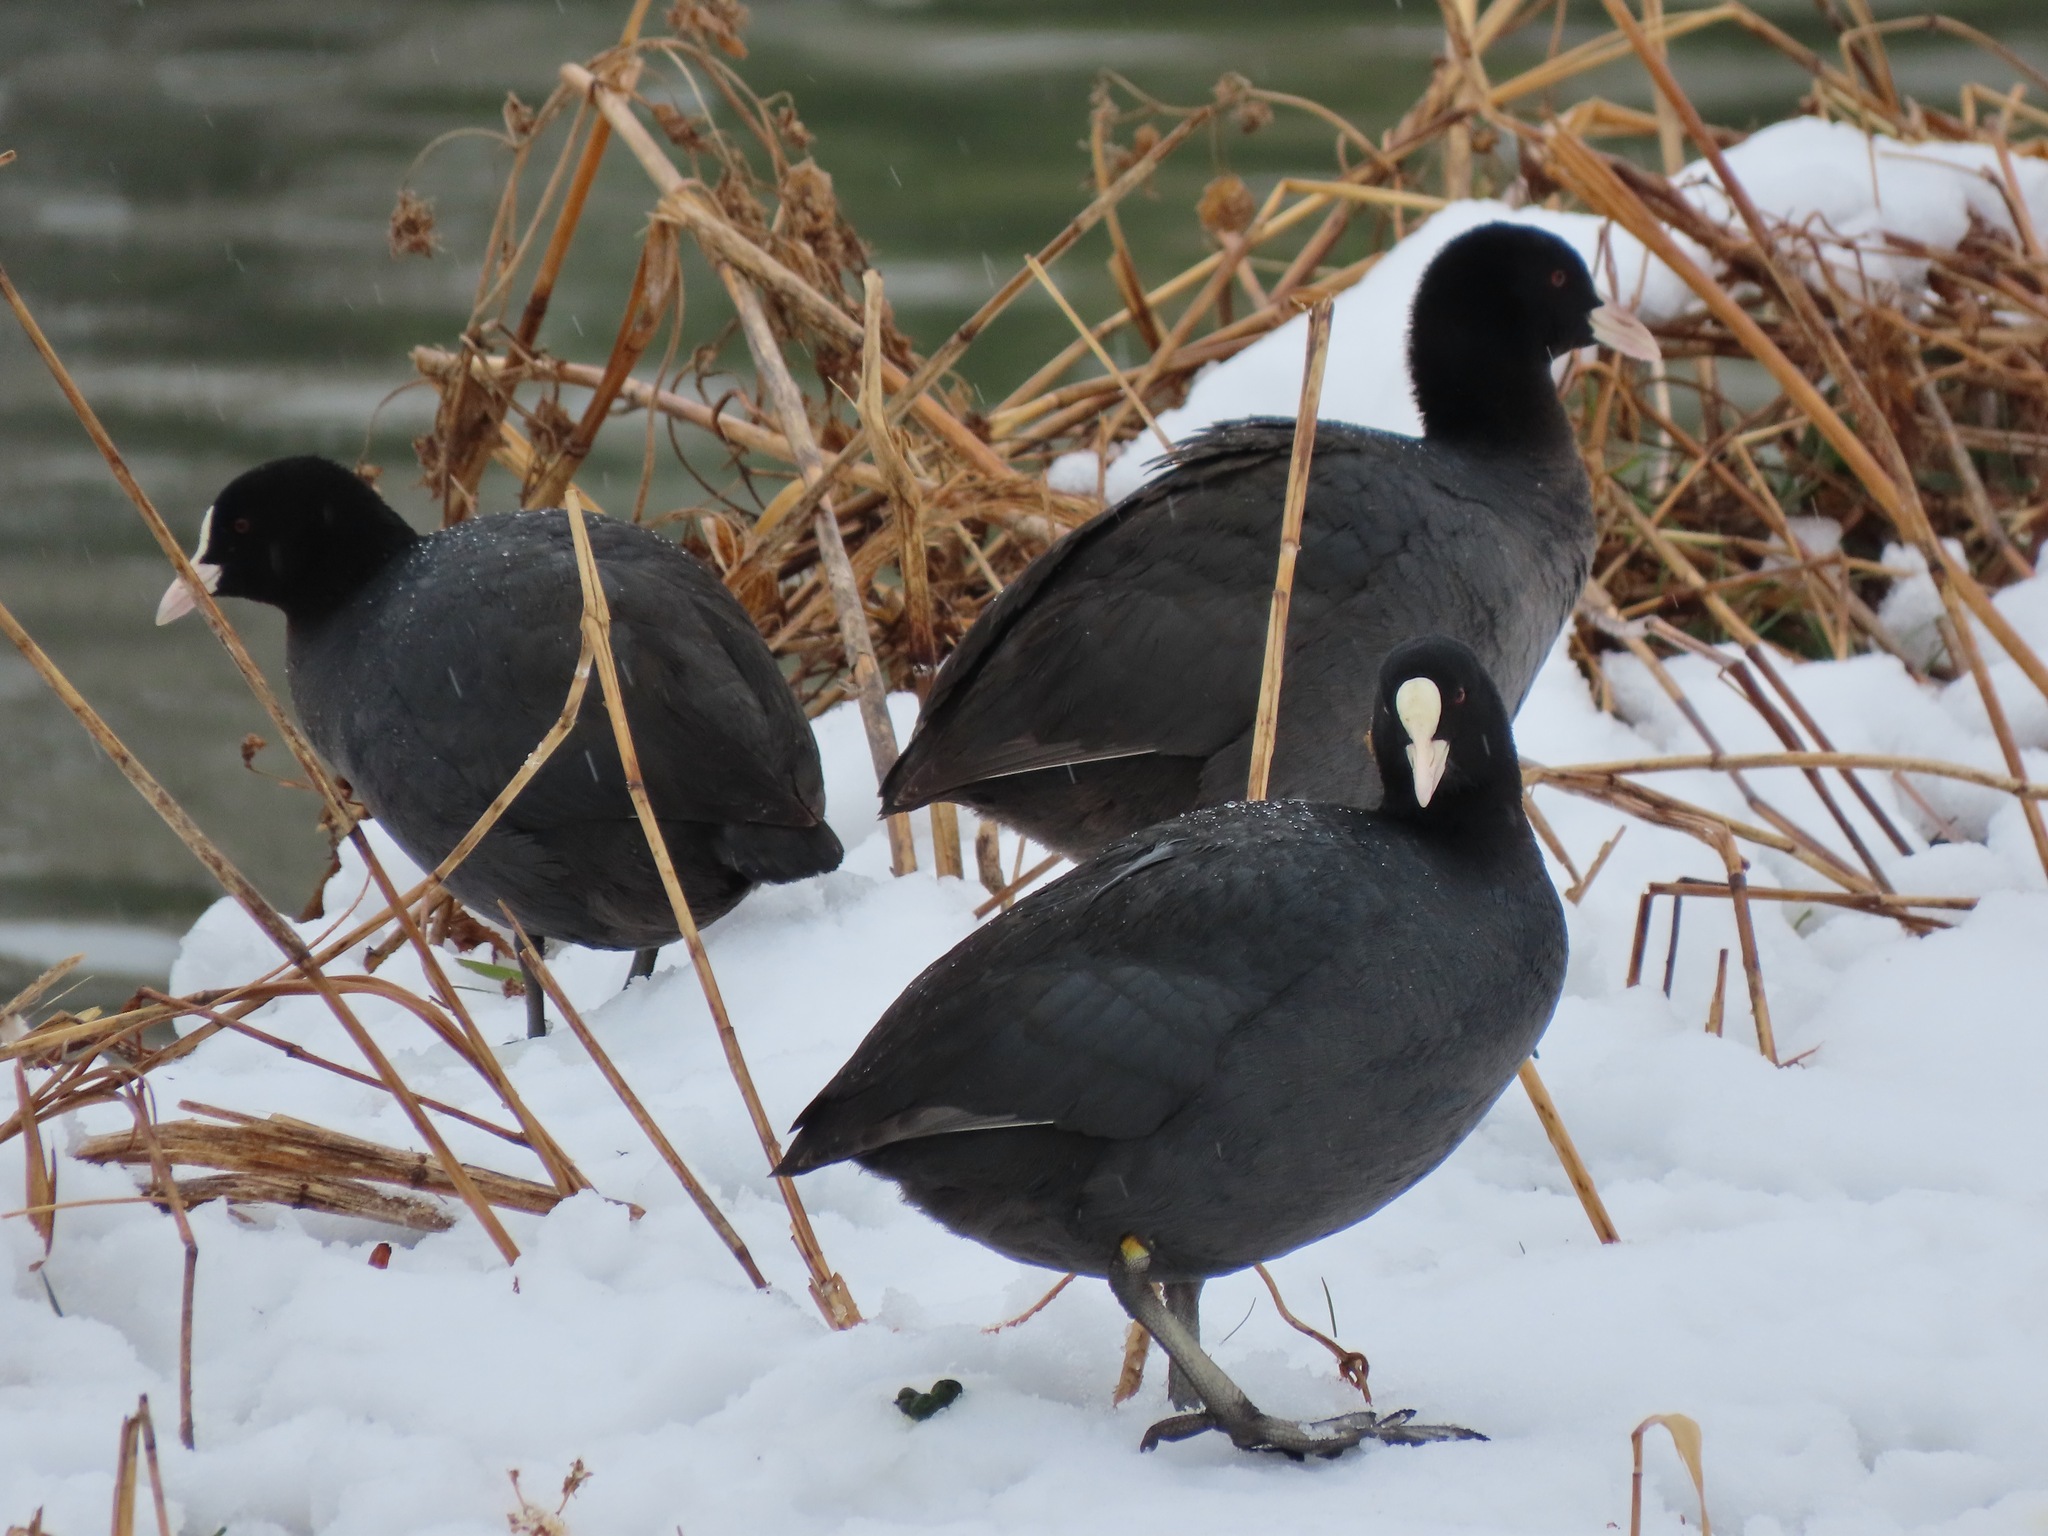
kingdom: Animalia
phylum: Chordata
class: Aves
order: Gruiformes
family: Rallidae
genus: Fulica
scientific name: Fulica atra
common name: Eurasian coot
